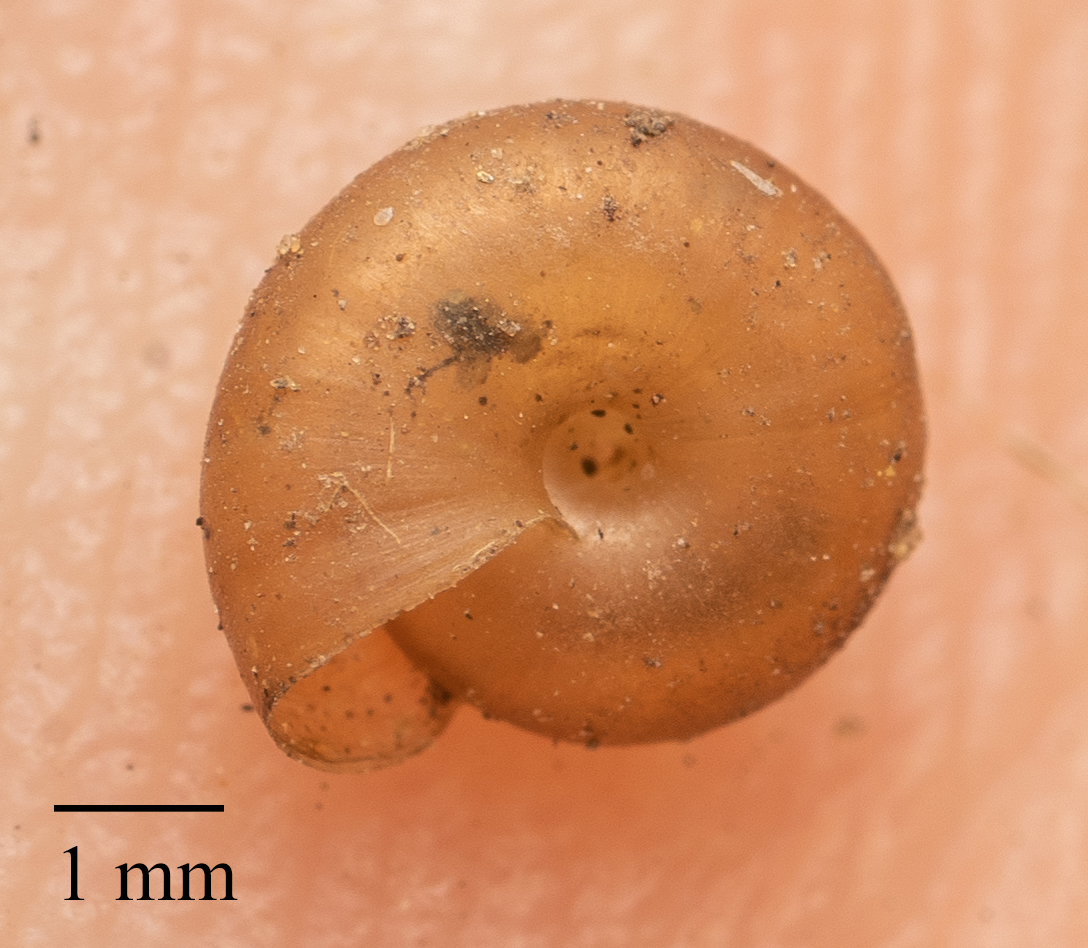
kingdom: Animalia
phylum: Mollusca
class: Gastropoda
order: Stylommatophora
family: Gastrodontidae
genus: Zonitoides
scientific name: Zonitoides arboreus
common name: Quick gloss
